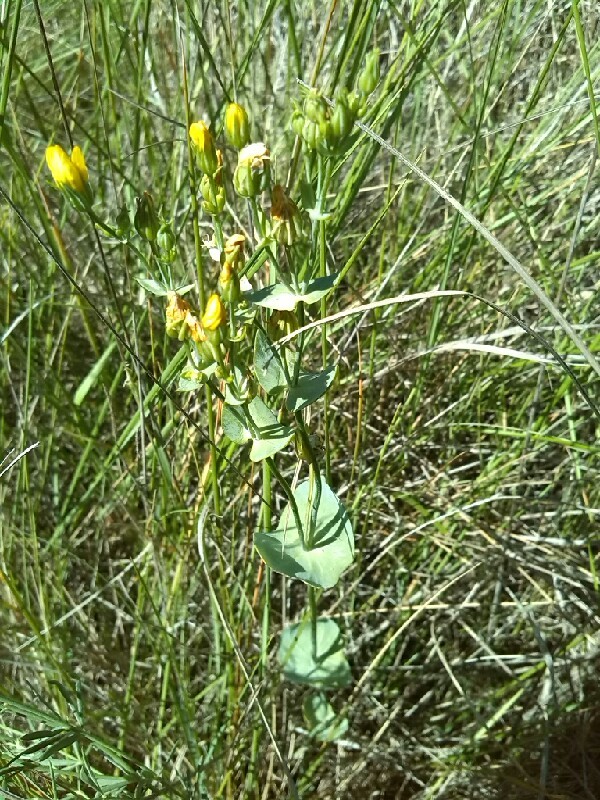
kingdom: Plantae
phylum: Tracheophyta
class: Magnoliopsida
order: Gentianales
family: Gentianaceae
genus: Blackstonia
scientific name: Blackstonia perfoliata
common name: Yellow-wort
